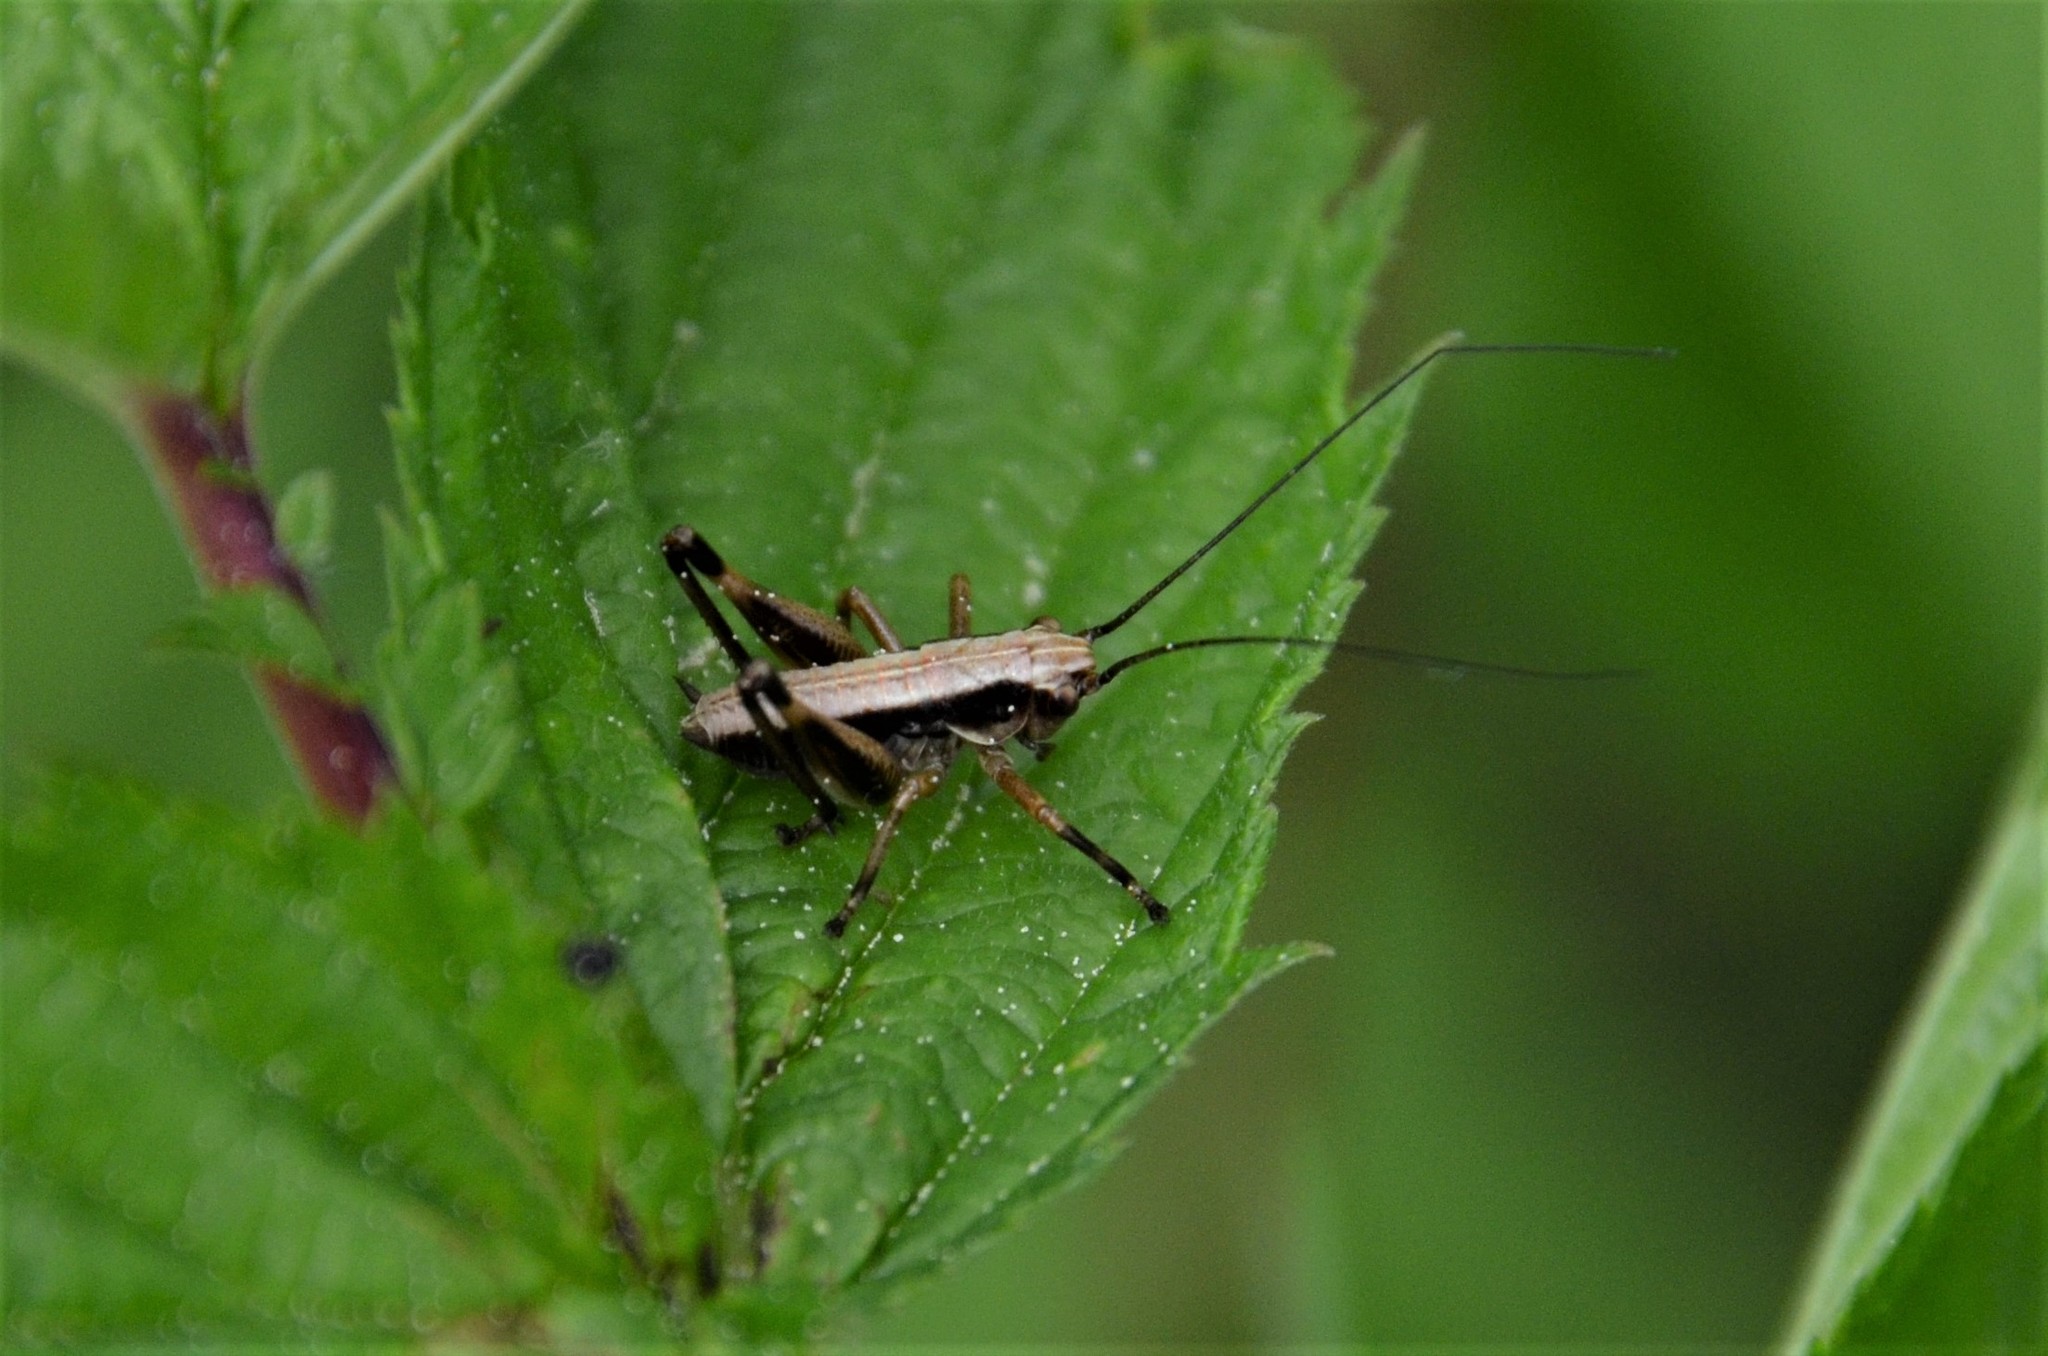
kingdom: Animalia
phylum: Arthropoda
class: Insecta
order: Orthoptera
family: Tettigoniidae
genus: Pholidoptera
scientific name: Pholidoptera griseoaptera
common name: Dark bush-cricket
